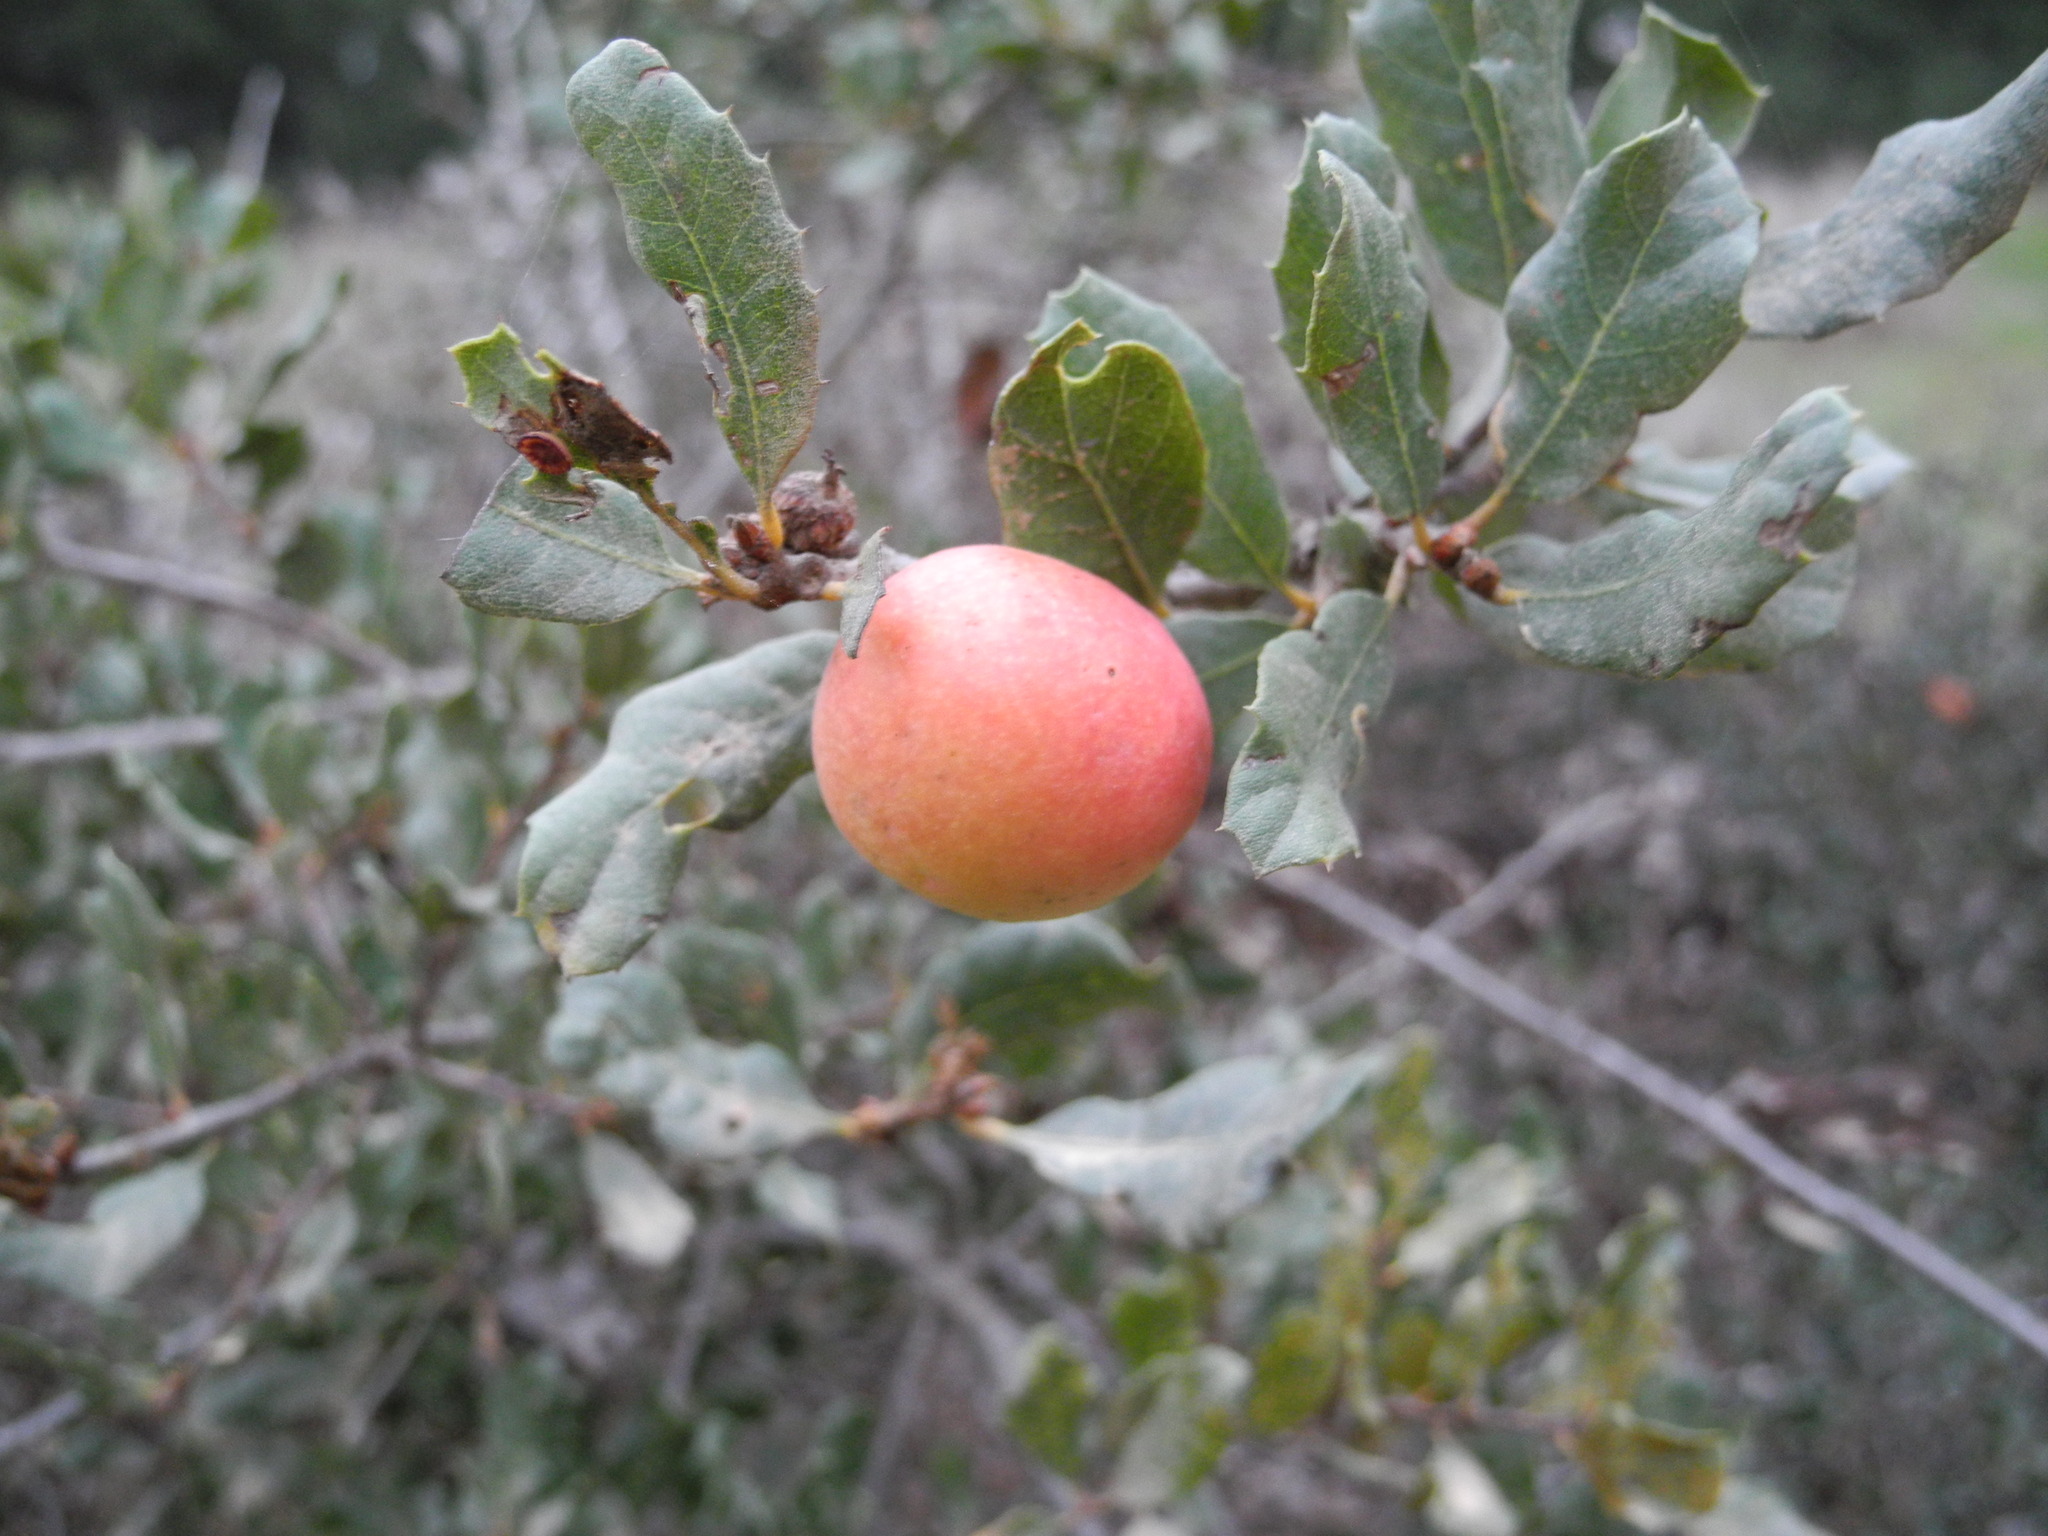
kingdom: Animalia
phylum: Arthropoda
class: Insecta
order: Hymenoptera
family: Cynipidae
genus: Andricus
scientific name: Andricus quercuscalifornicus
